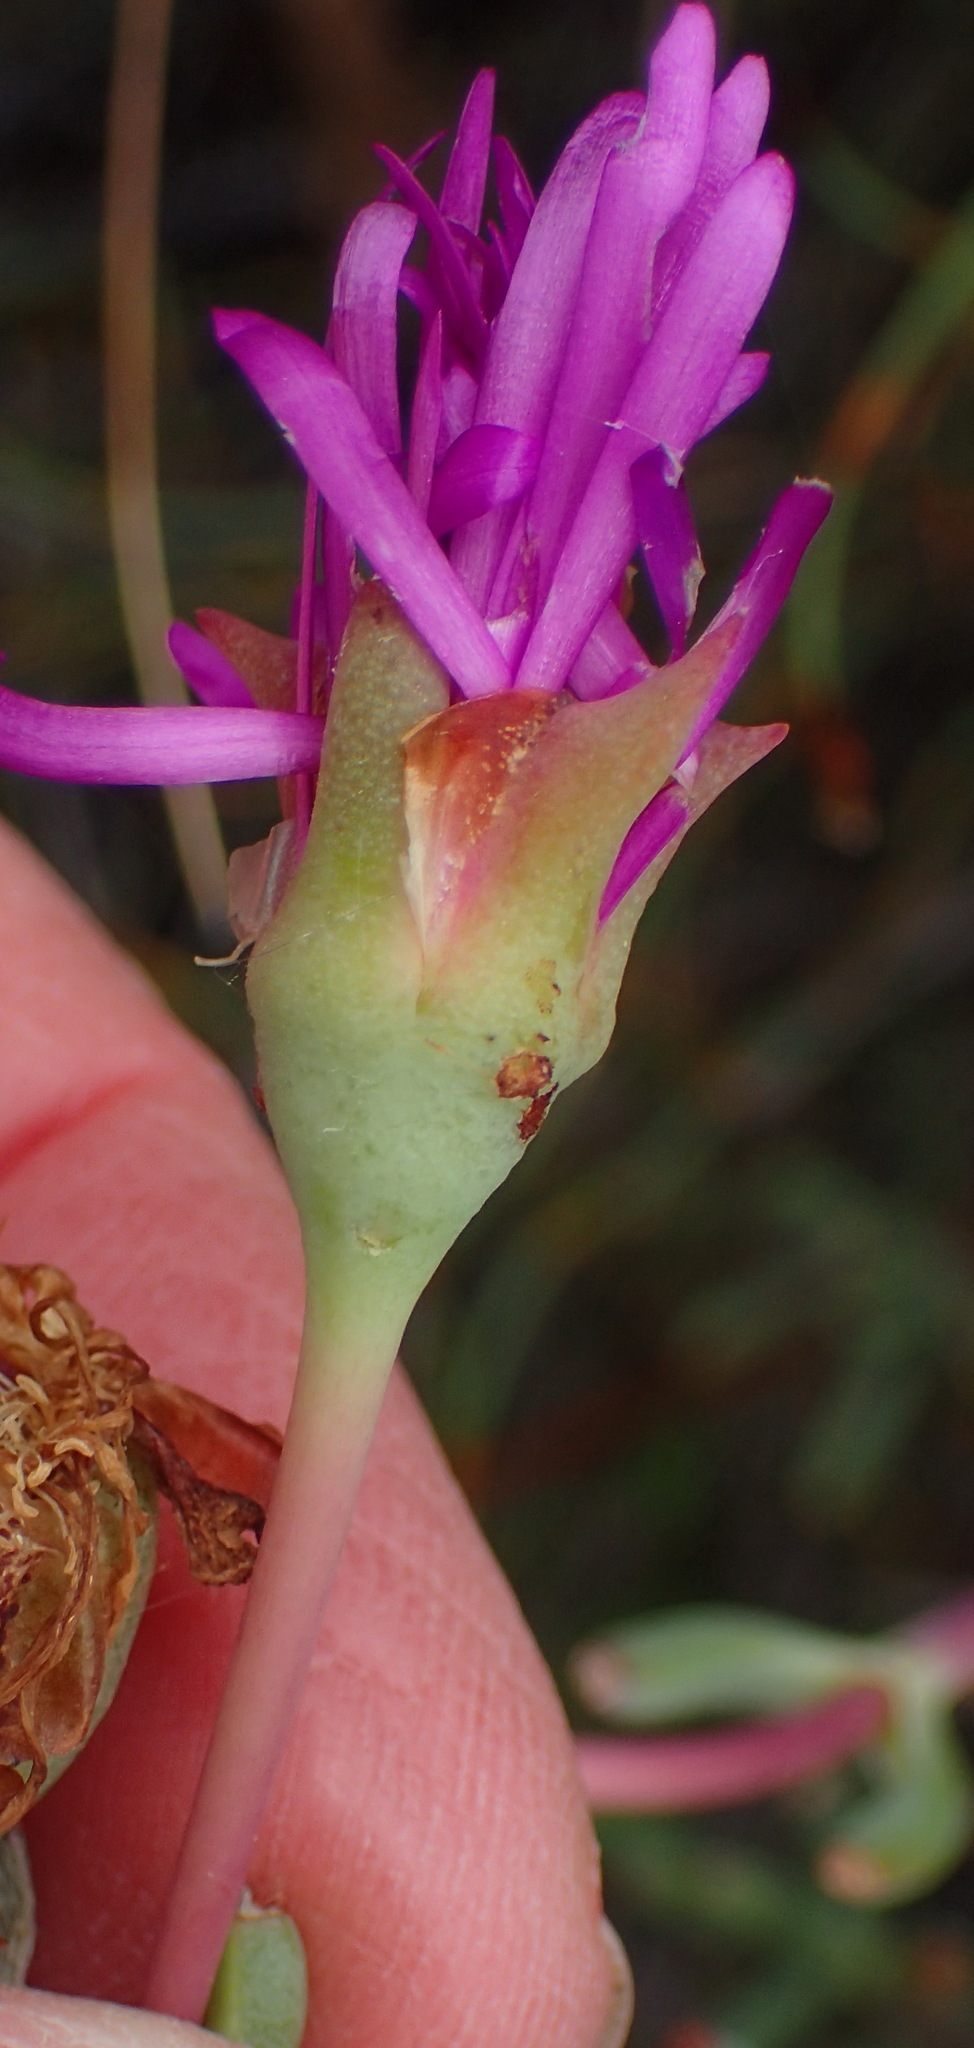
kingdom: Plantae
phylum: Tracheophyta
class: Magnoliopsida
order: Caryophyllales
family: Aizoaceae
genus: Lampranthus
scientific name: Lampranthus haworthii
